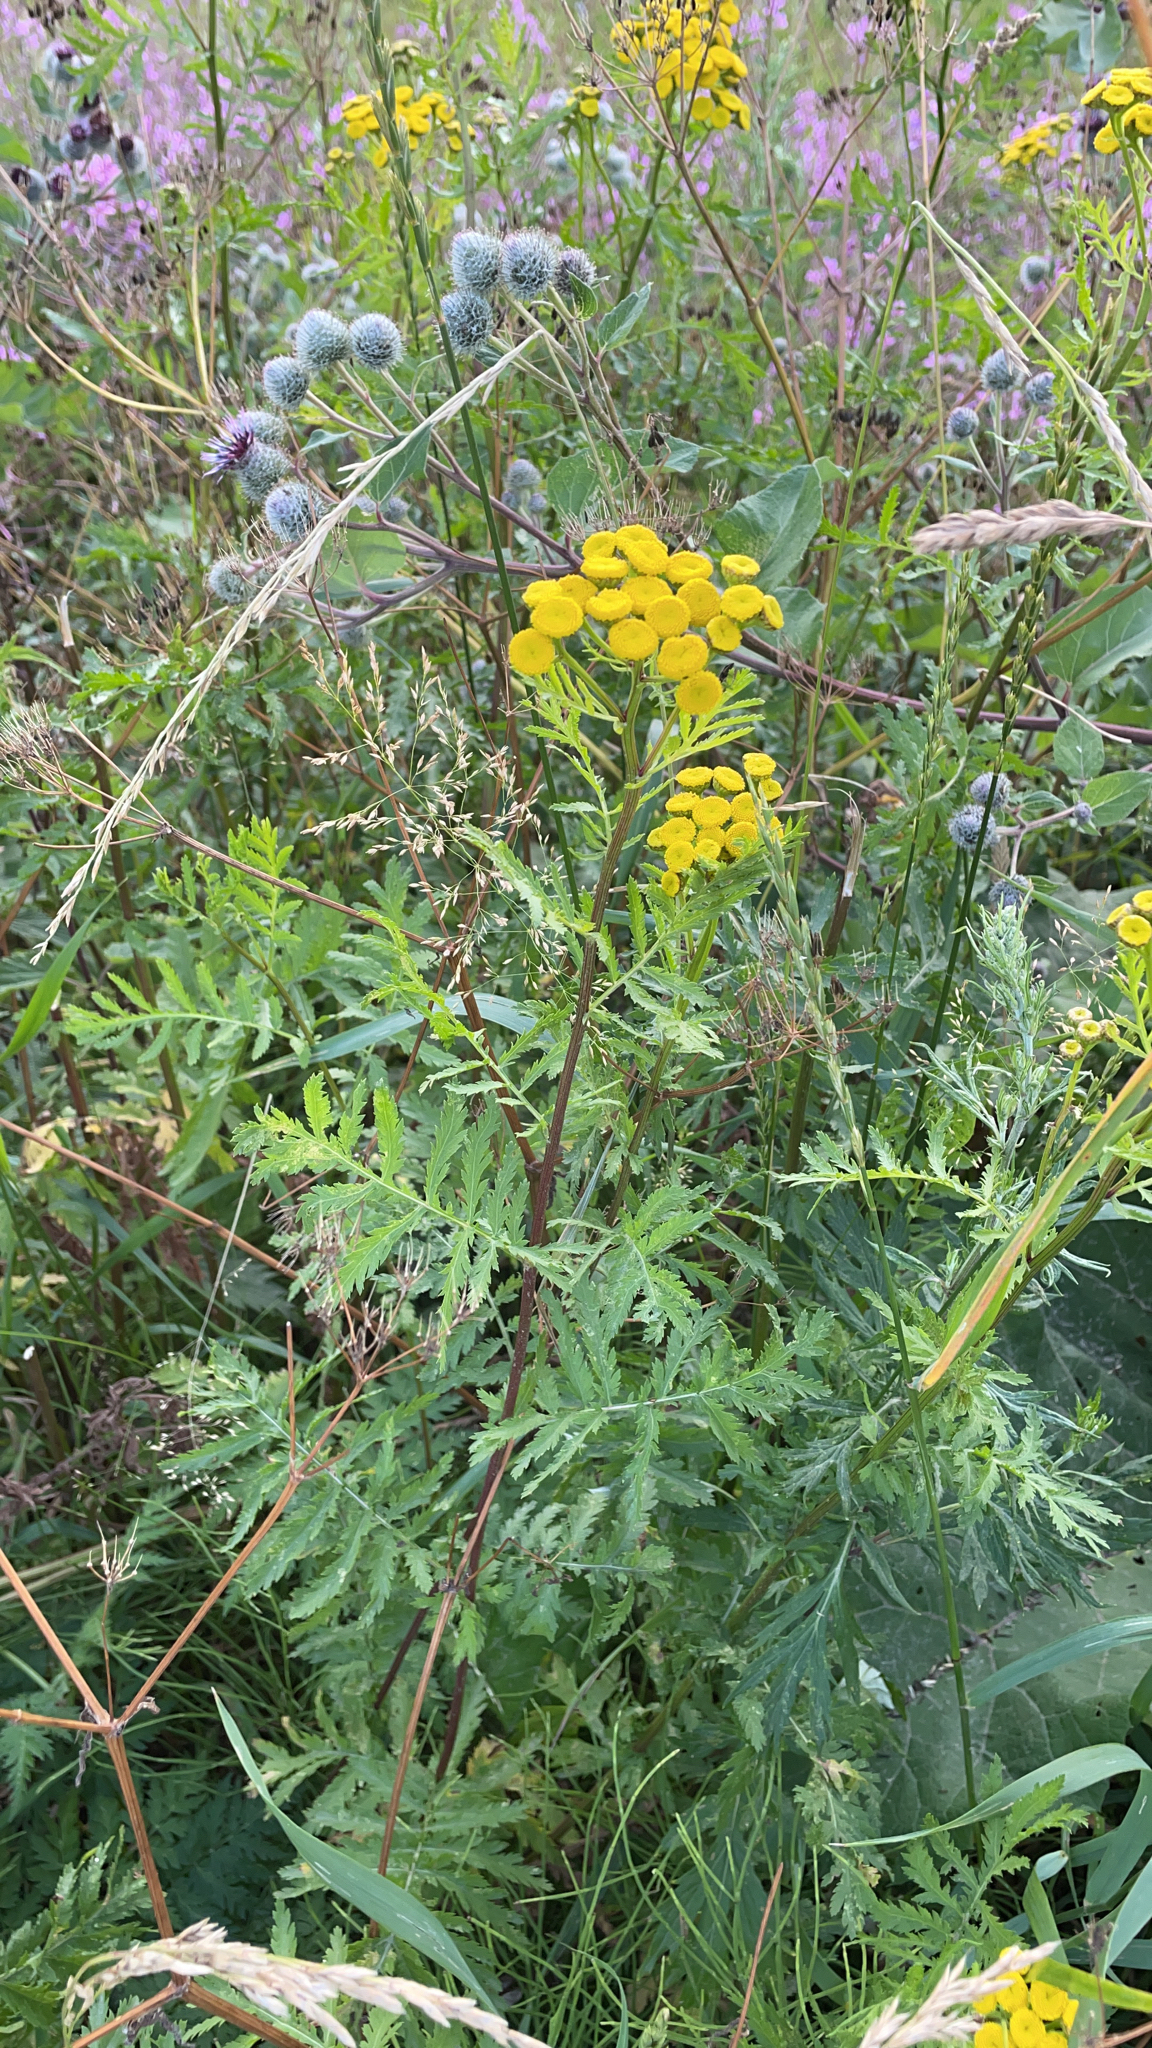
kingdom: Plantae
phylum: Tracheophyta
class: Magnoliopsida
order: Asterales
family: Asteraceae
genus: Tanacetum
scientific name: Tanacetum vulgare
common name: Common tansy
